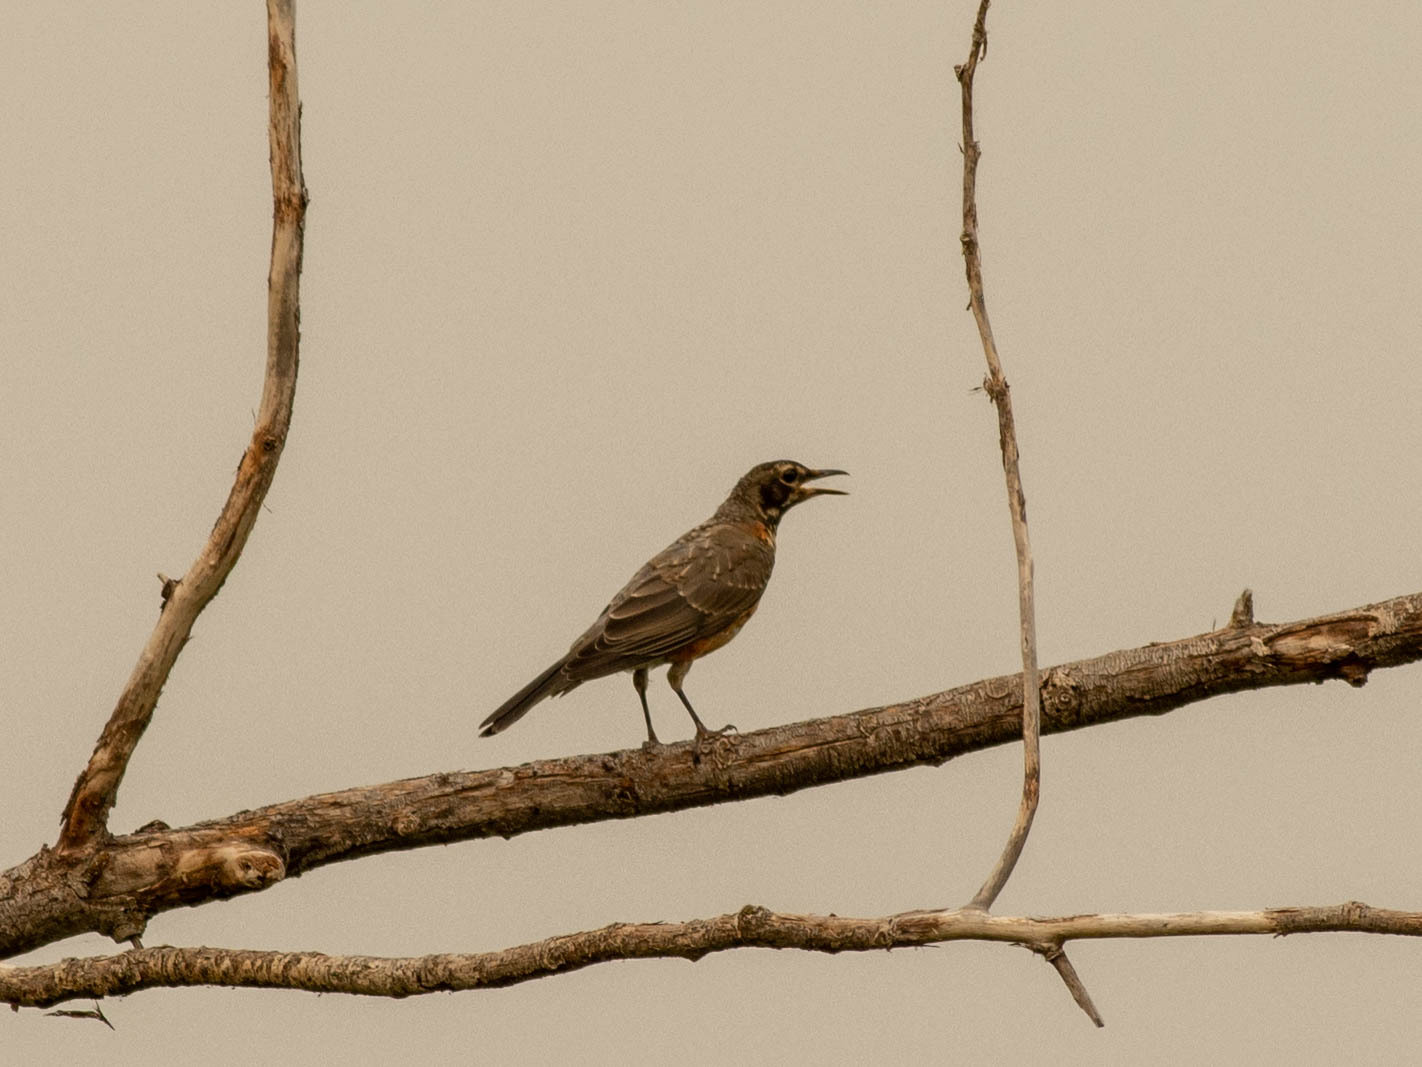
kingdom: Animalia
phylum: Chordata
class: Aves
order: Passeriformes
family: Turdidae
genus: Turdus
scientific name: Turdus migratorius
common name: American robin
